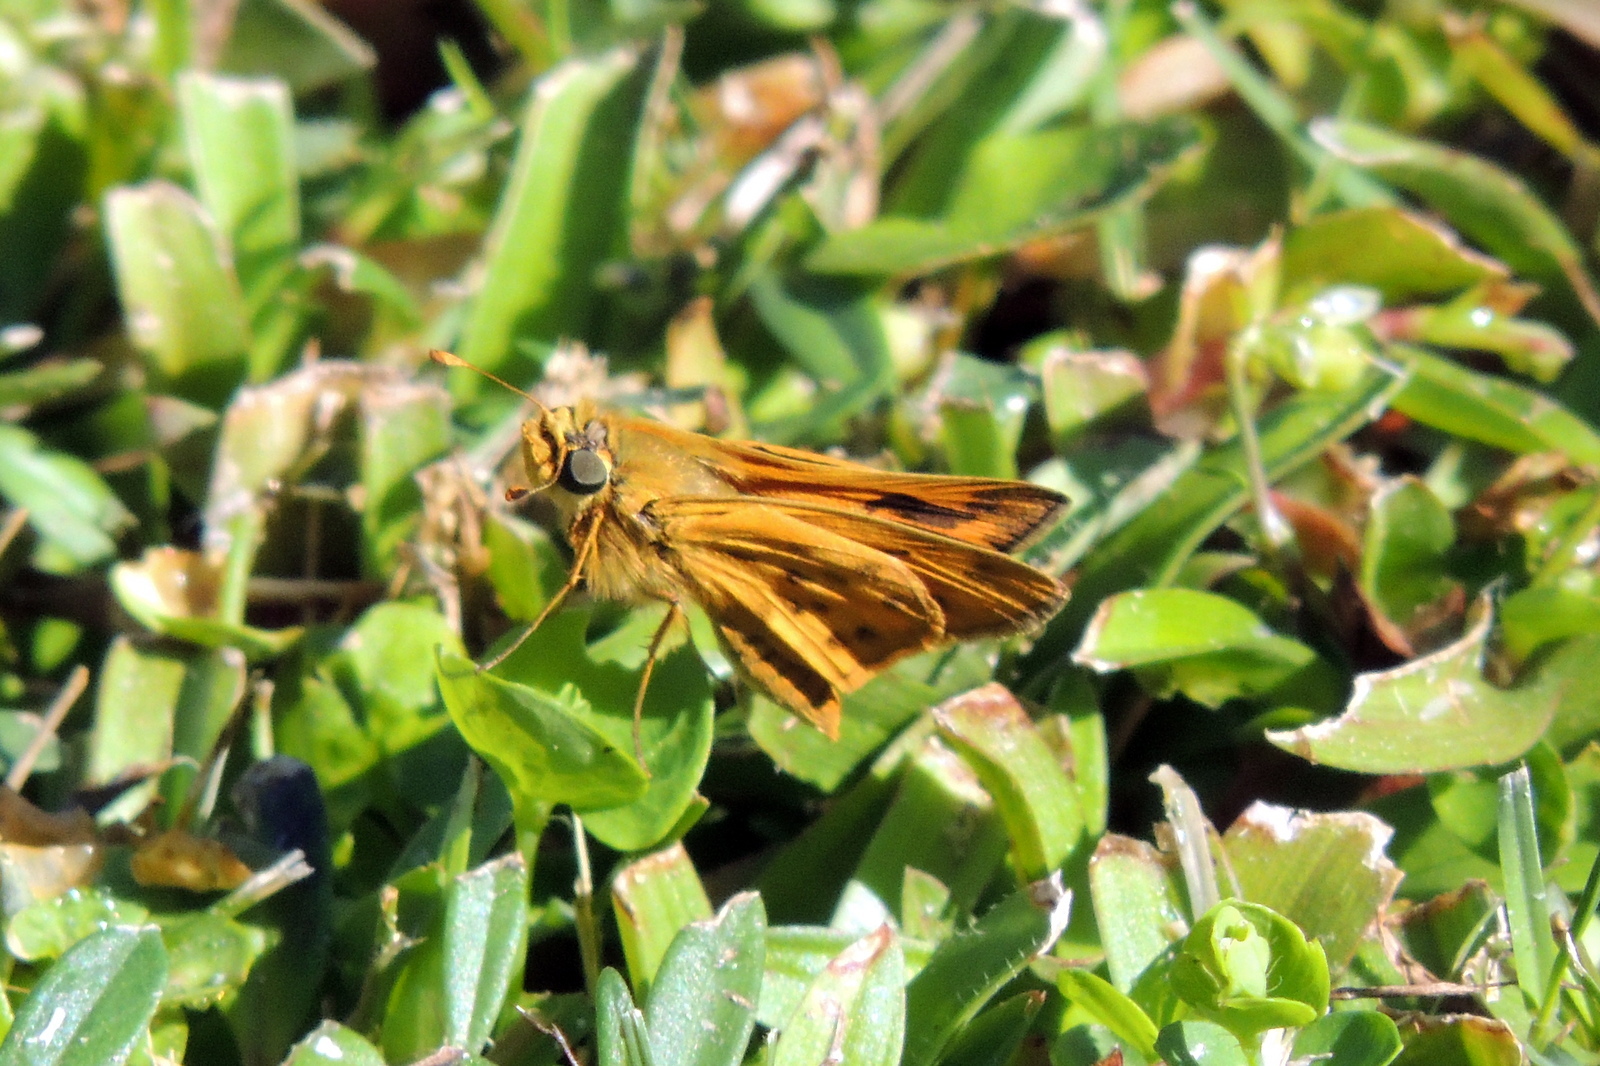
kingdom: Animalia
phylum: Arthropoda
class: Insecta
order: Lepidoptera
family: Hesperiidae
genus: Hylephila
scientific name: Hylephila phyleus
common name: Fiery skipper
